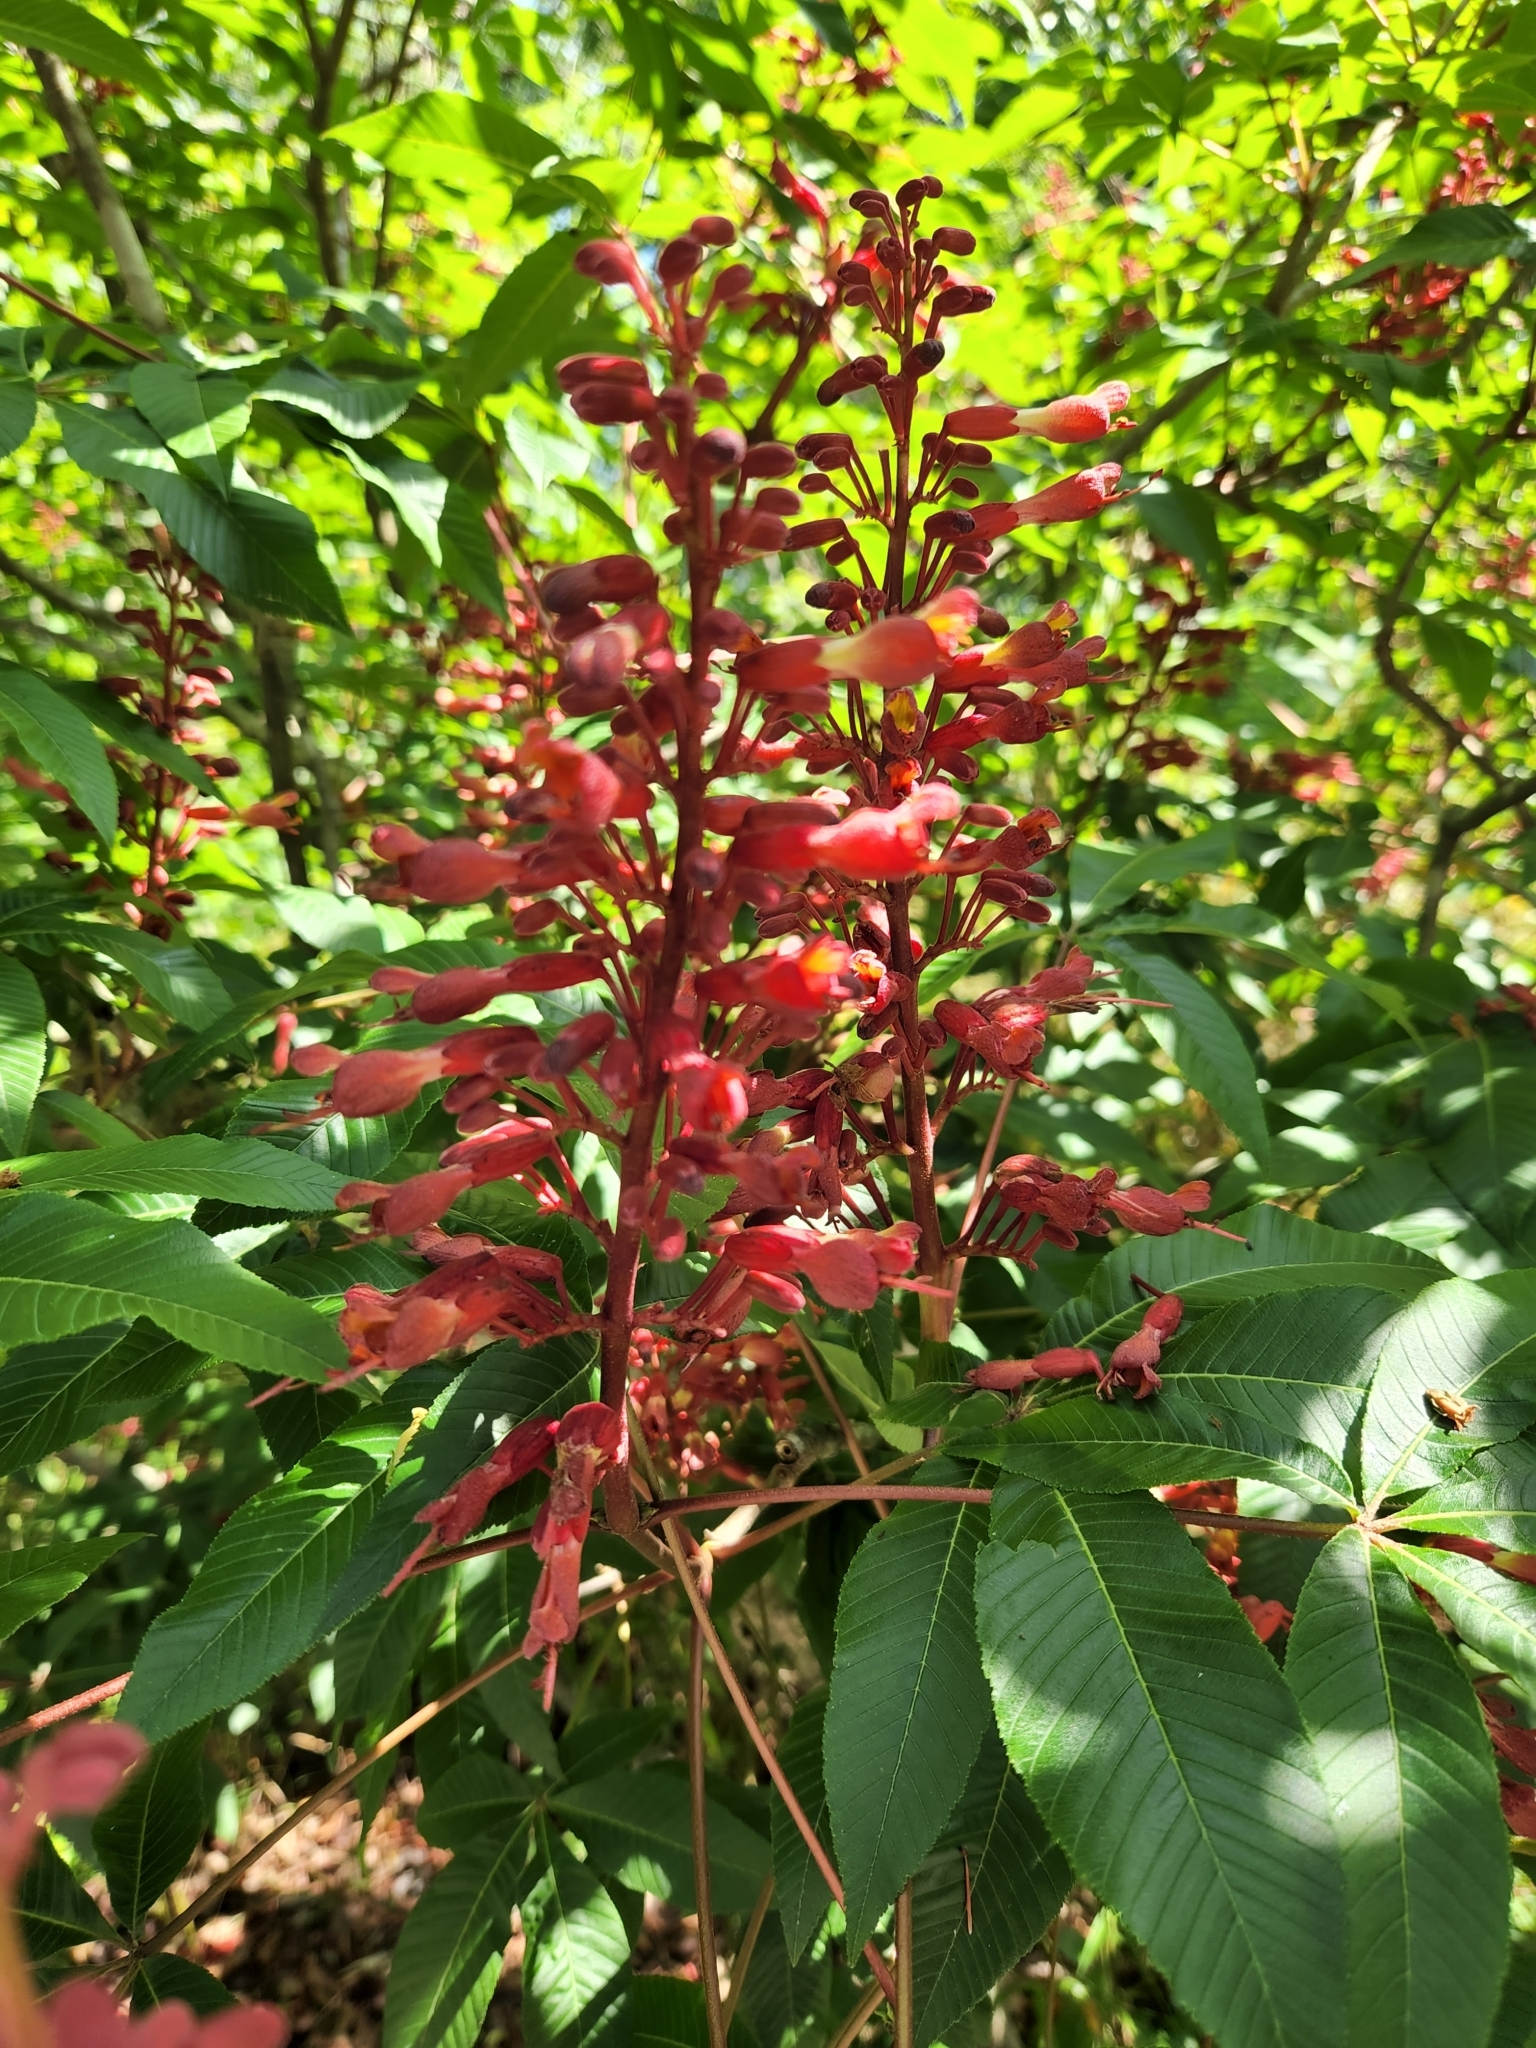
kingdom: Plantae
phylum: Tracheophyta
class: Magnoliopsida
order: Sapindales
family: Sapindaceae
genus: Aesculus
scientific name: Aesculus pavia
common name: Red buckeye
